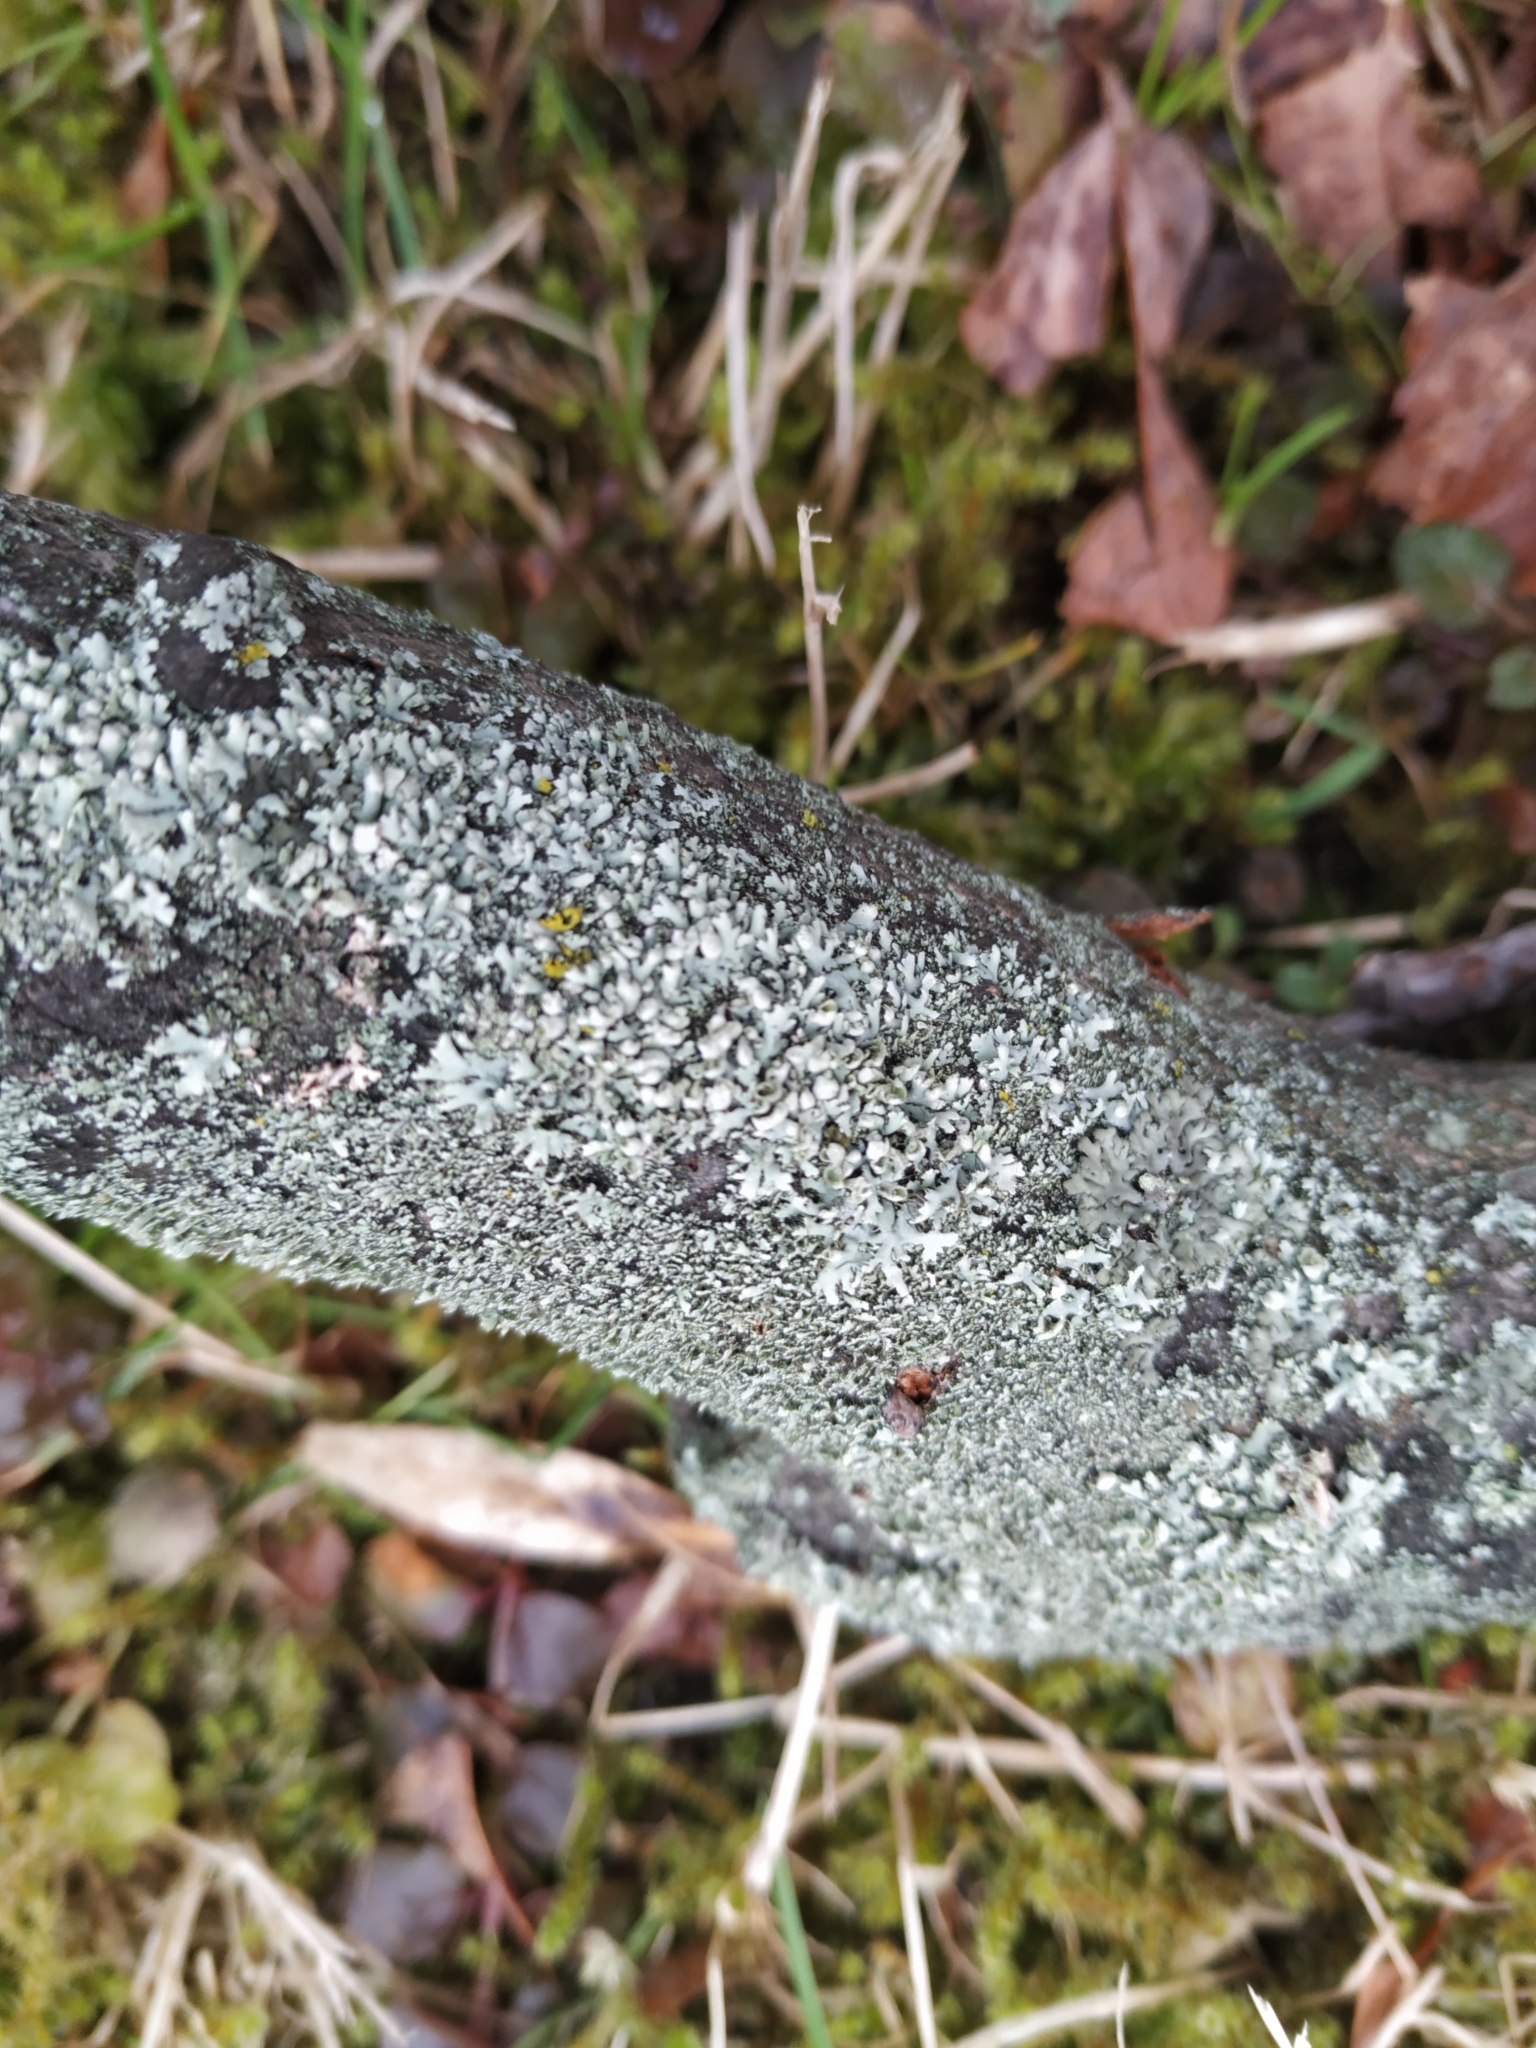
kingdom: Fungi
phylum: Ascomycota
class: Lecanoromycetes
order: Caliciales
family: Physciaceae
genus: Physcia
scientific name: Physcia adscendens
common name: Hooded rosette lichen
